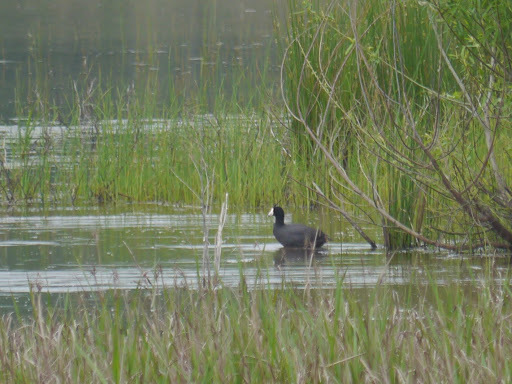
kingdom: Animalia
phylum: Chordata
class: Aves
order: Gruiformes
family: Rallidae
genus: Fulica
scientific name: Fulica americana
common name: American coot
